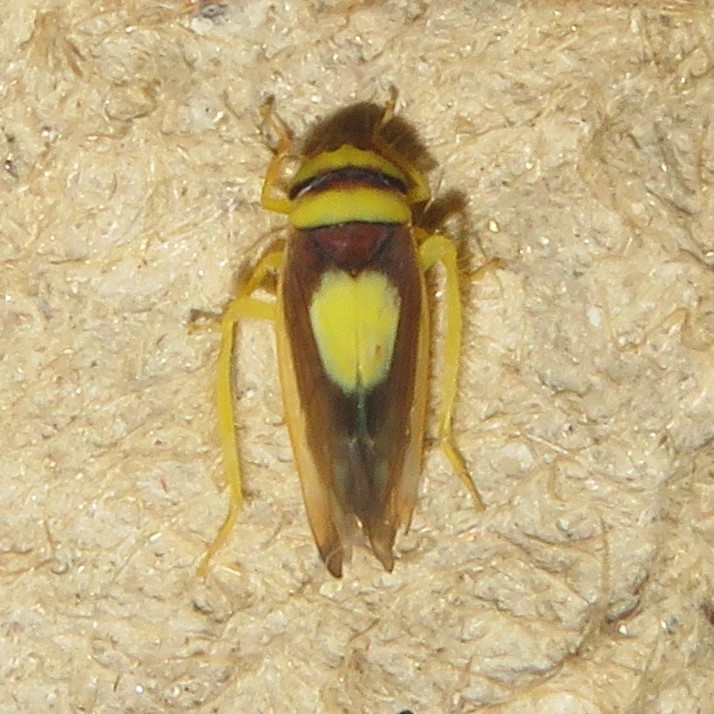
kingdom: Animalia
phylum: Arthropoda
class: Insecta
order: Hemiptera
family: Cicadellidae
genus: Colladonus
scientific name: Colladonus clitellarius
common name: The saddleback leafhopper
